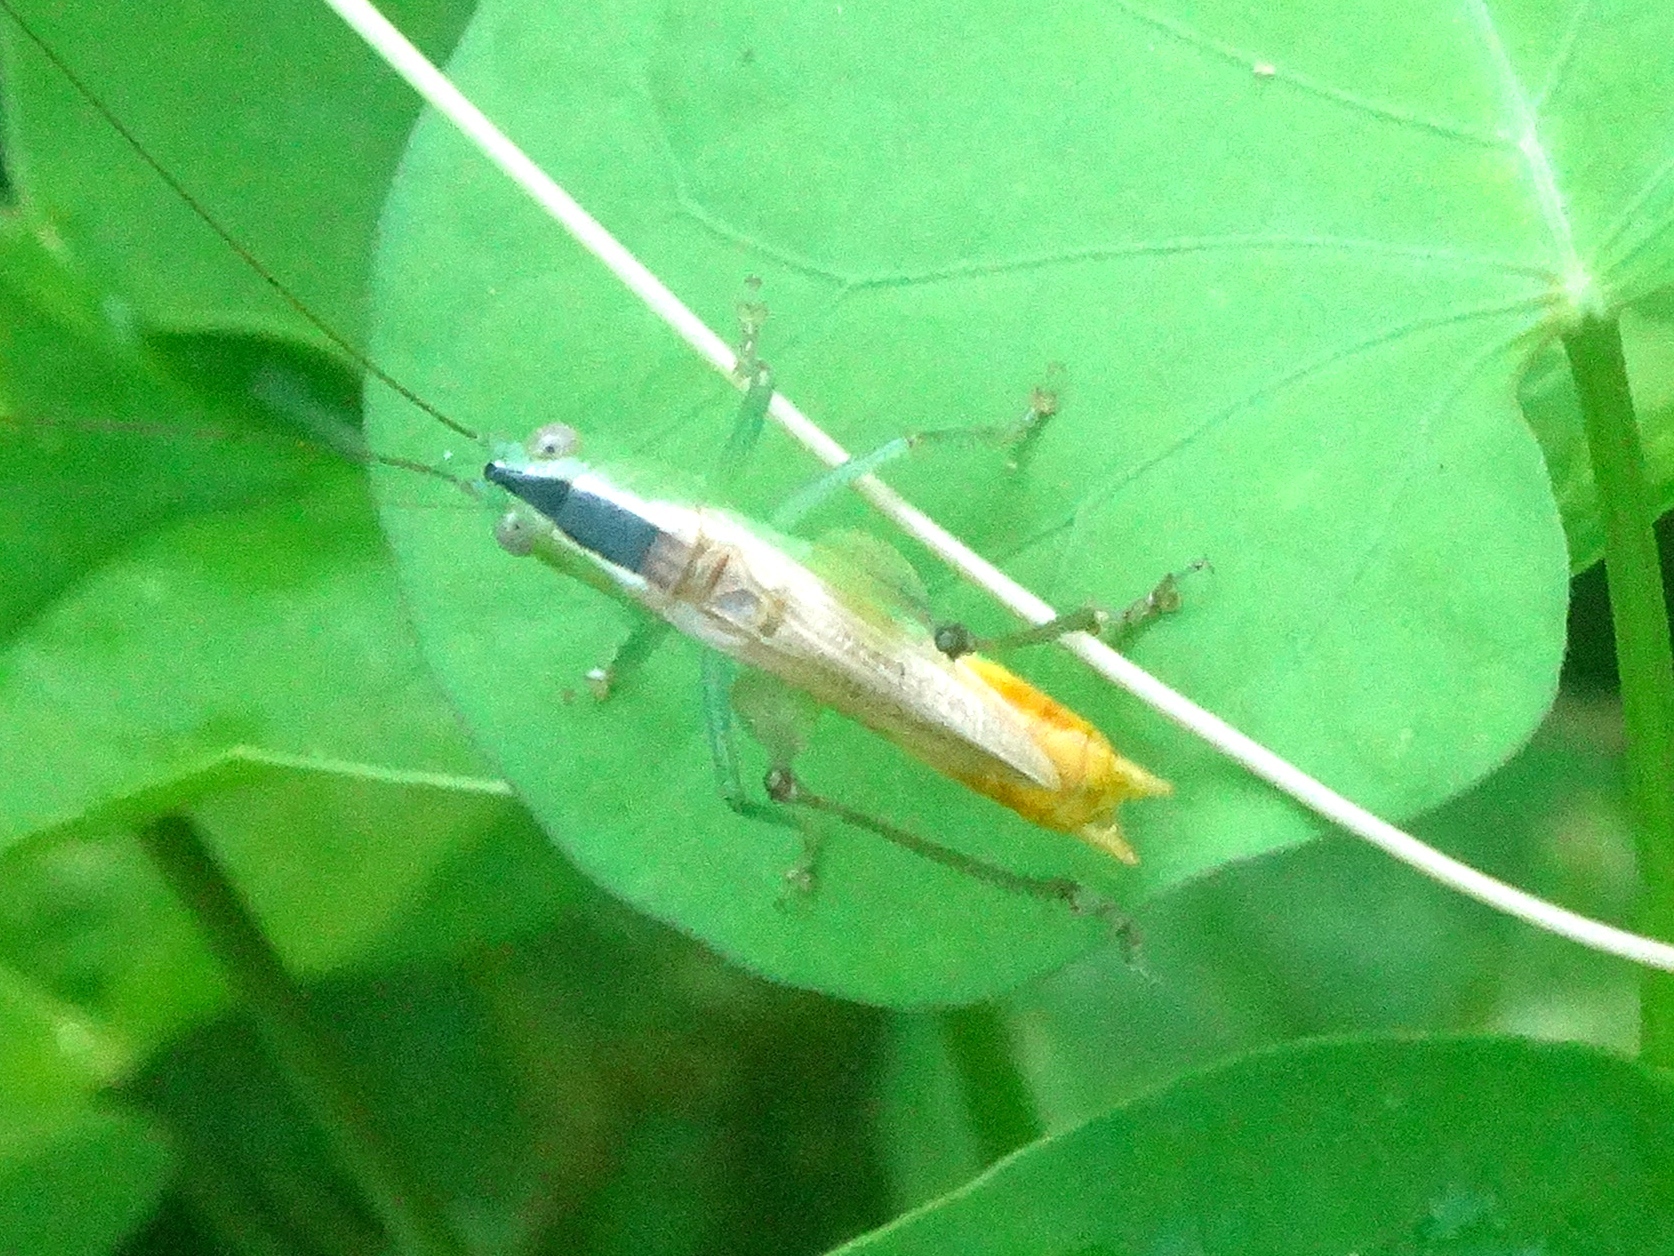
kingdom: Animalia
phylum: Arthropoda
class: Insecta
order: Orthoptera
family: Tettigoniidae
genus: Conocephalus
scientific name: Conocephalus
